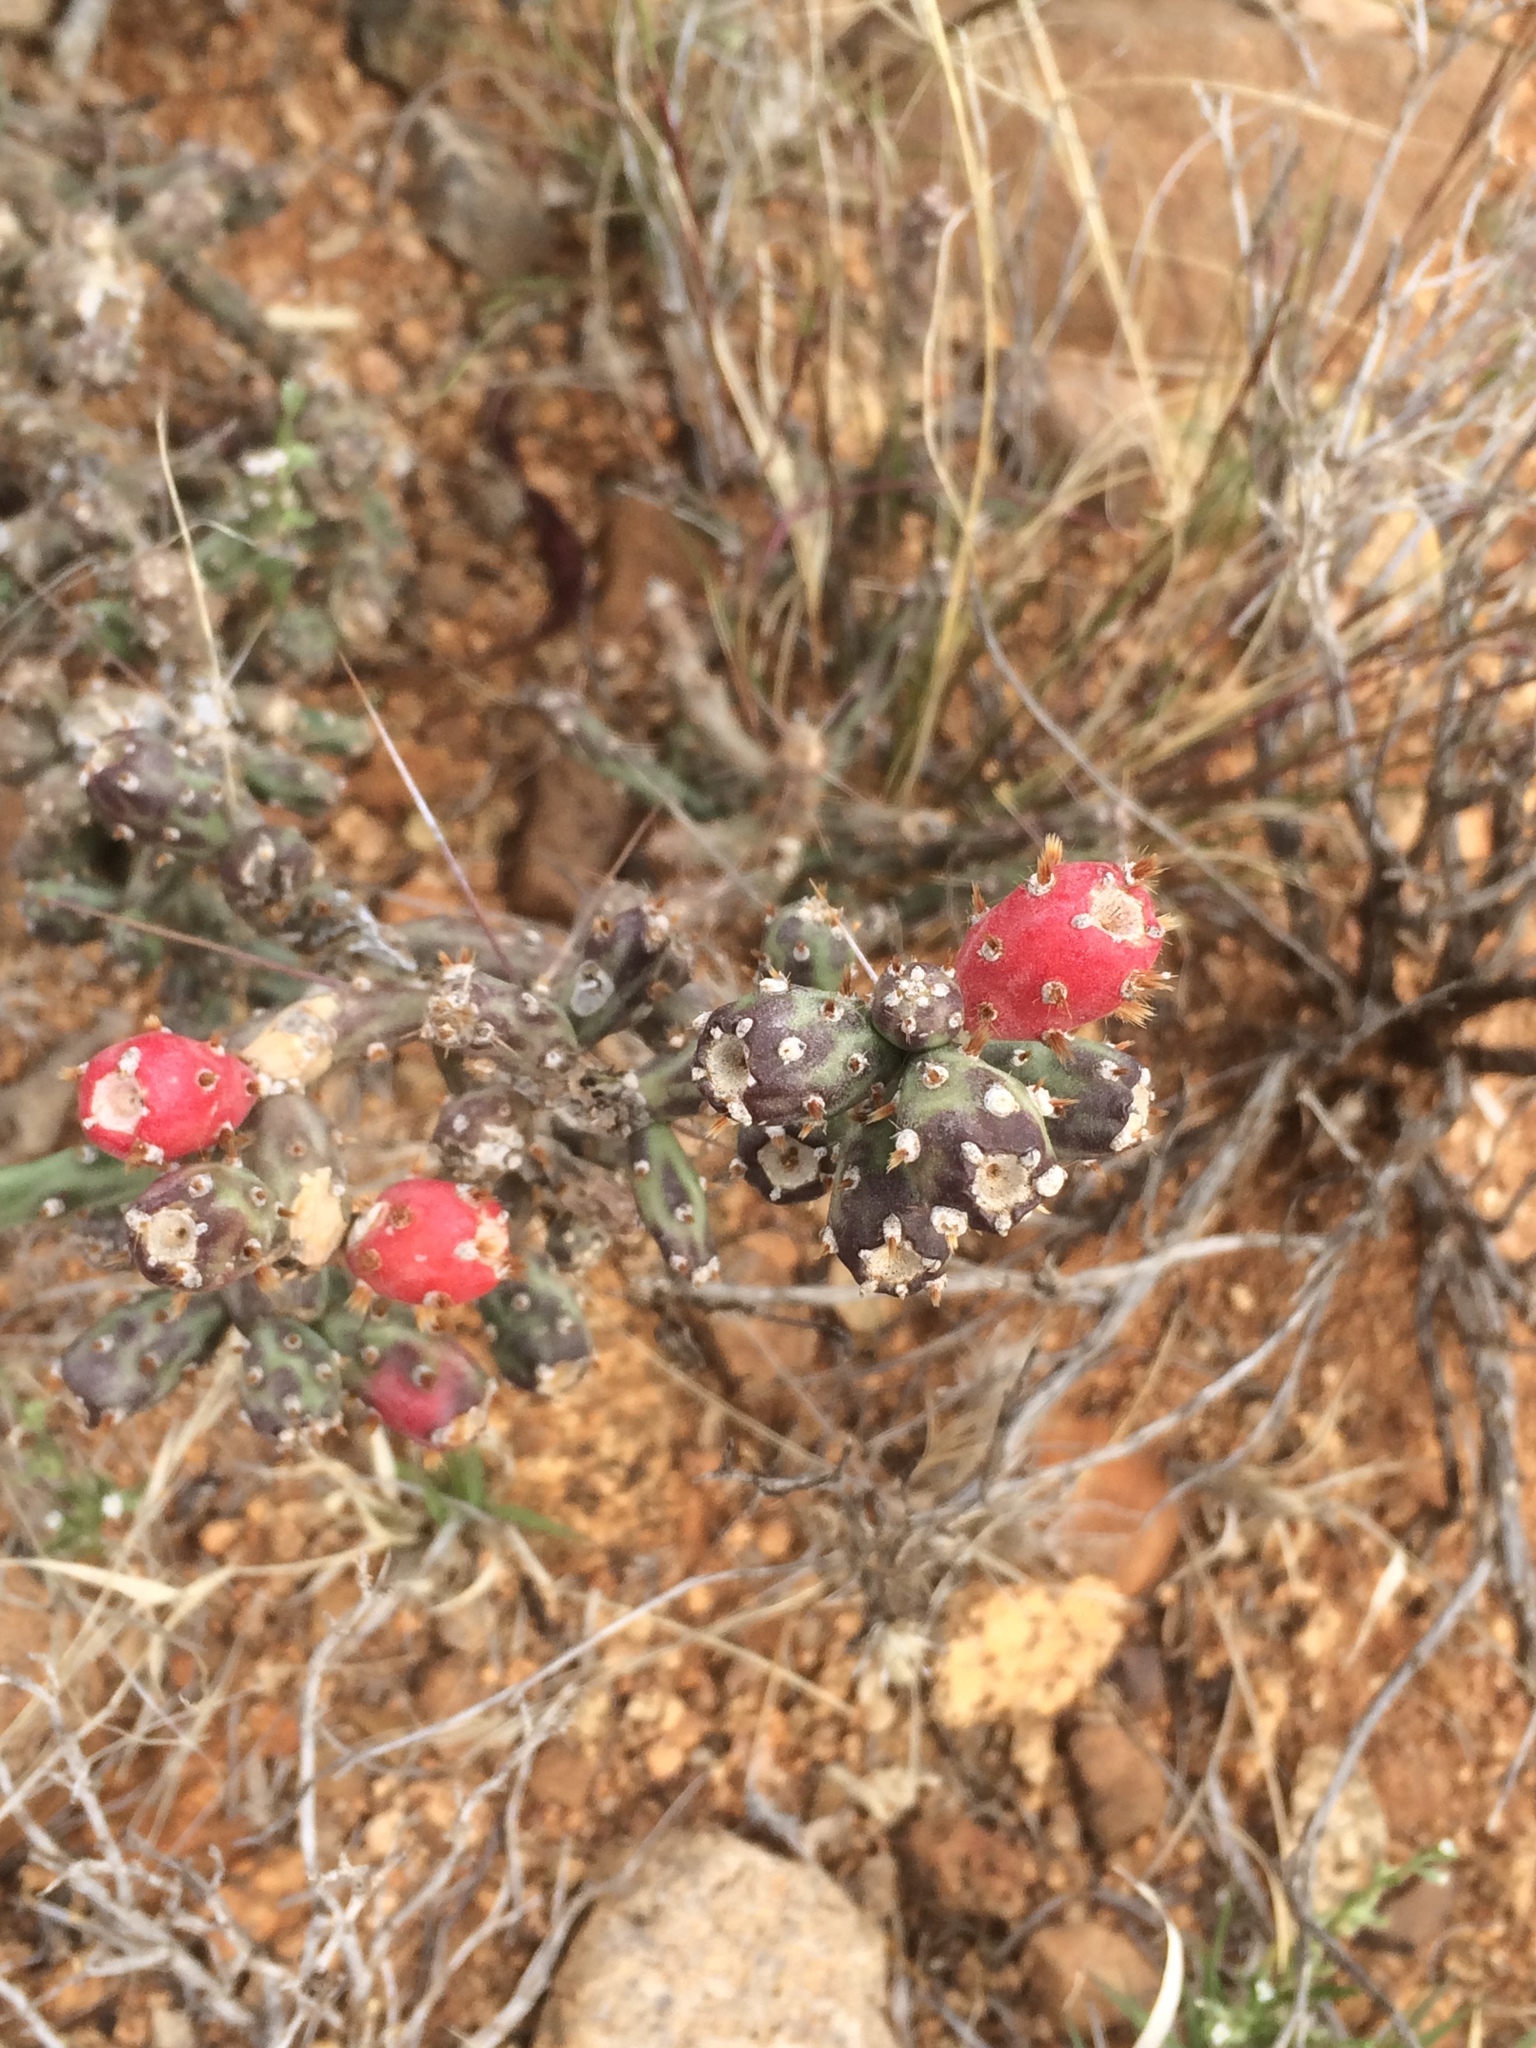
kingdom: Plantae
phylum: Tracheophyta
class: Magnoliopsida
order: Caryophyllales
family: Cactaceae
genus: Cylindropuntia
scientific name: Cylindropuntia leptocaulis
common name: Christmas cactus
